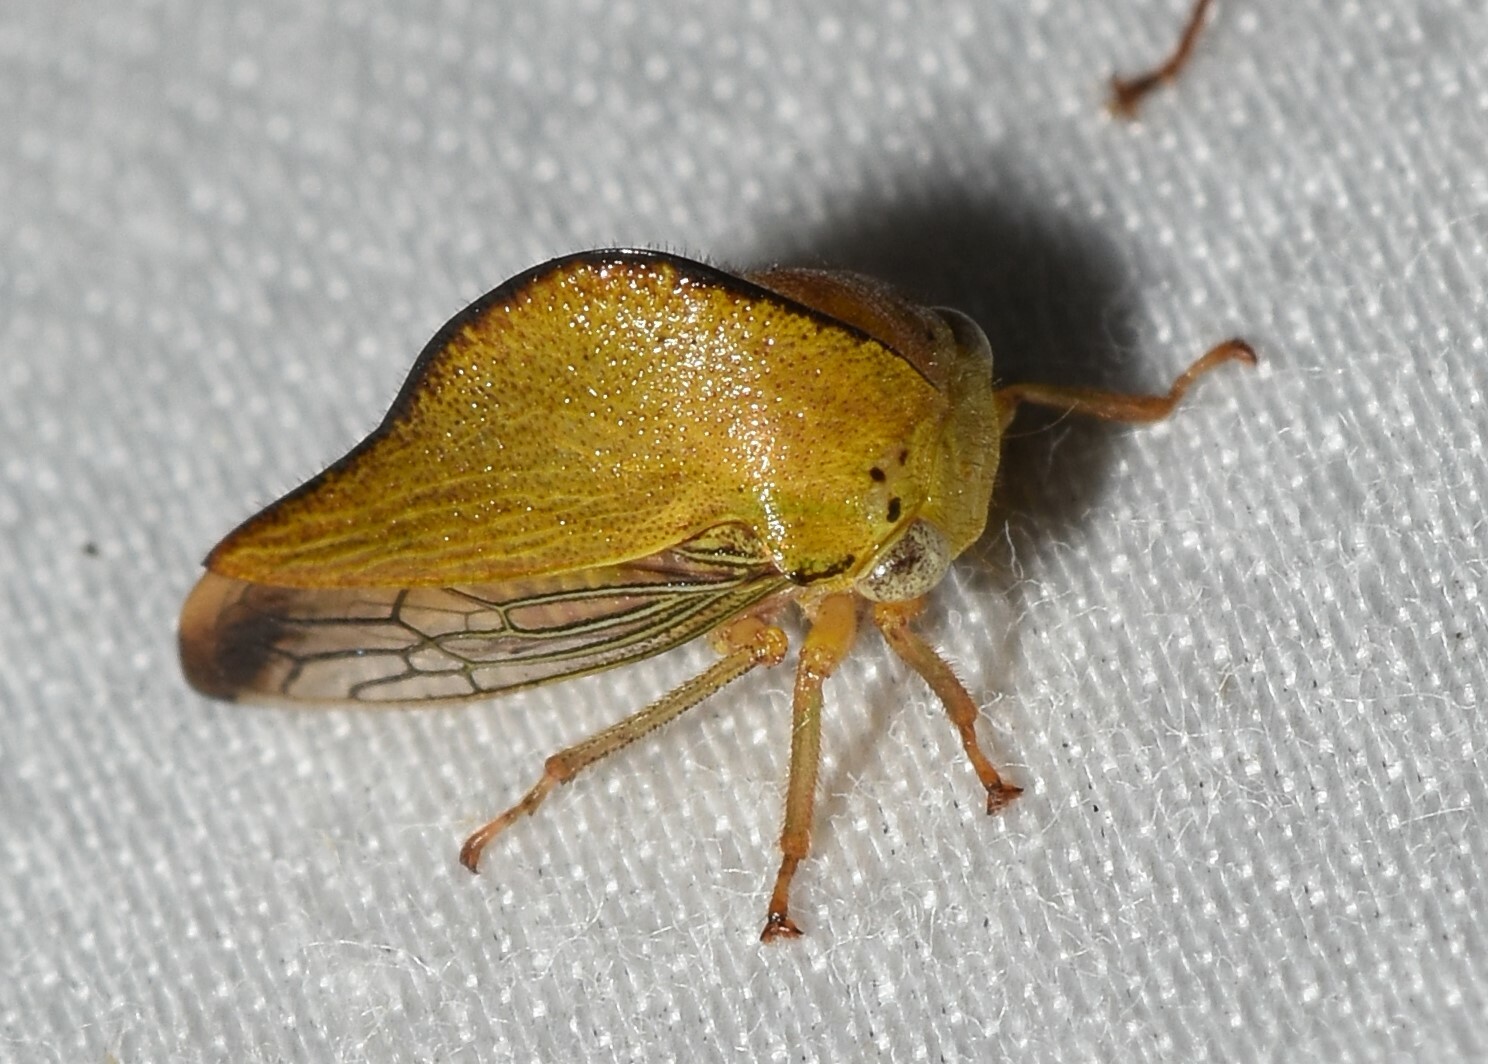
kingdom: Animalia
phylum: Arthropoda
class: Insecta
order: Hemiptera
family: Membracidae
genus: Archasia
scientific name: Archasia pallida
